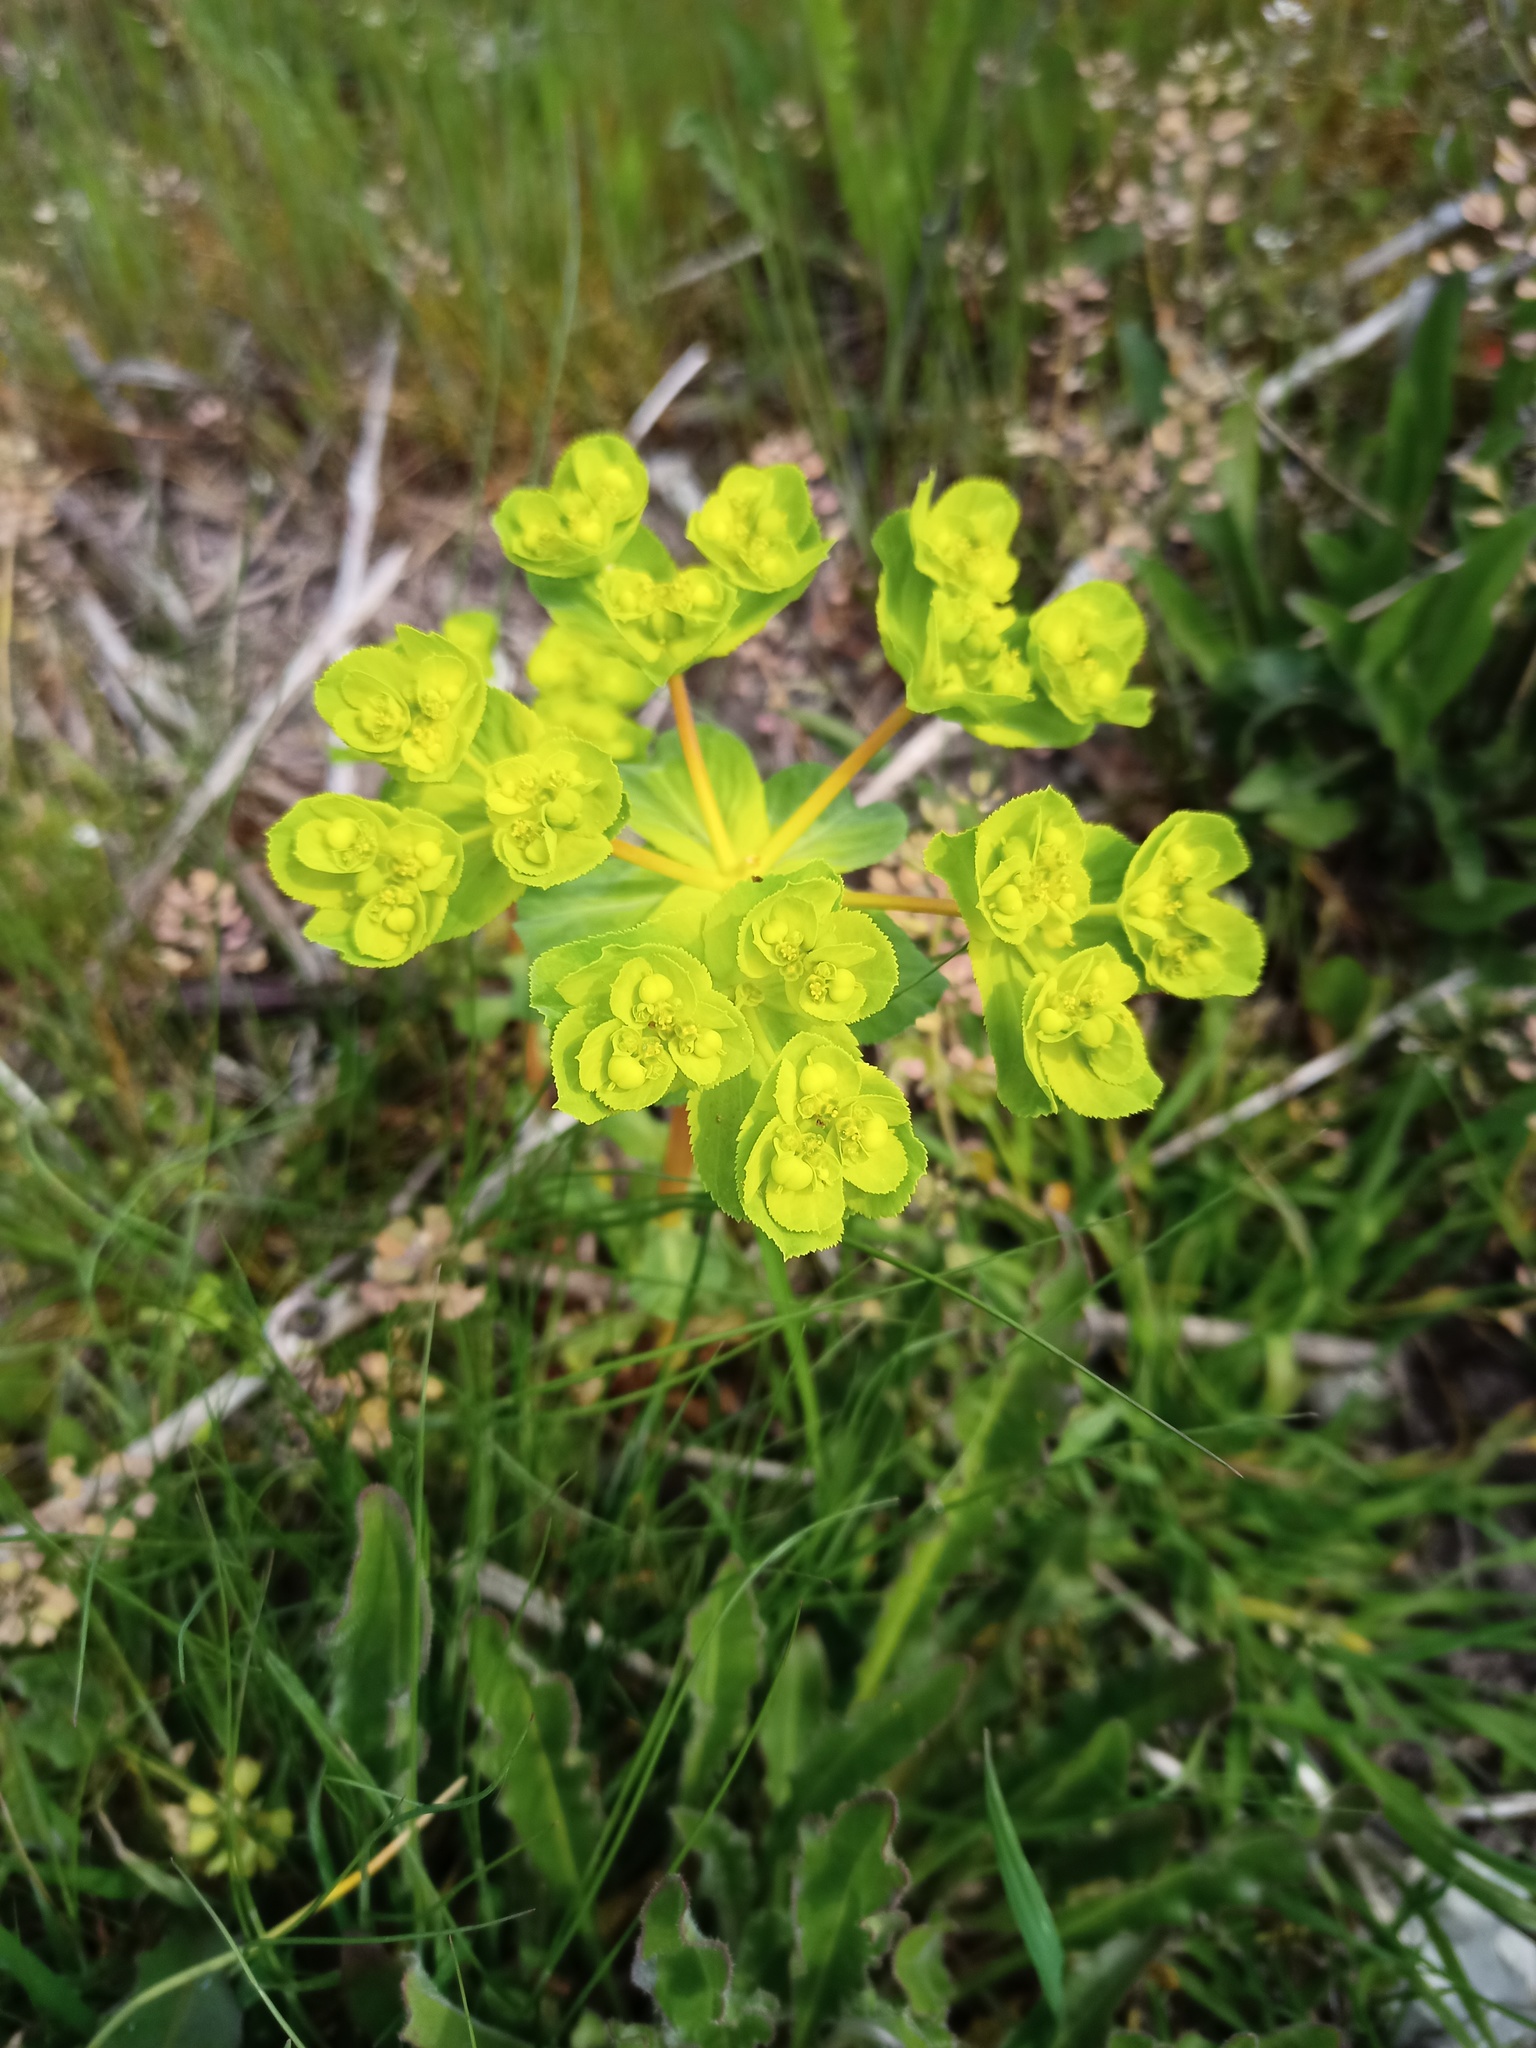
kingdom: Plantae
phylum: Tracheophyta
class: Magnoliopsida
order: Malpighiales
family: Euphorbiaceae
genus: Euphorbia
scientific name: Euphorbia helioscopia
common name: Sun spurge
